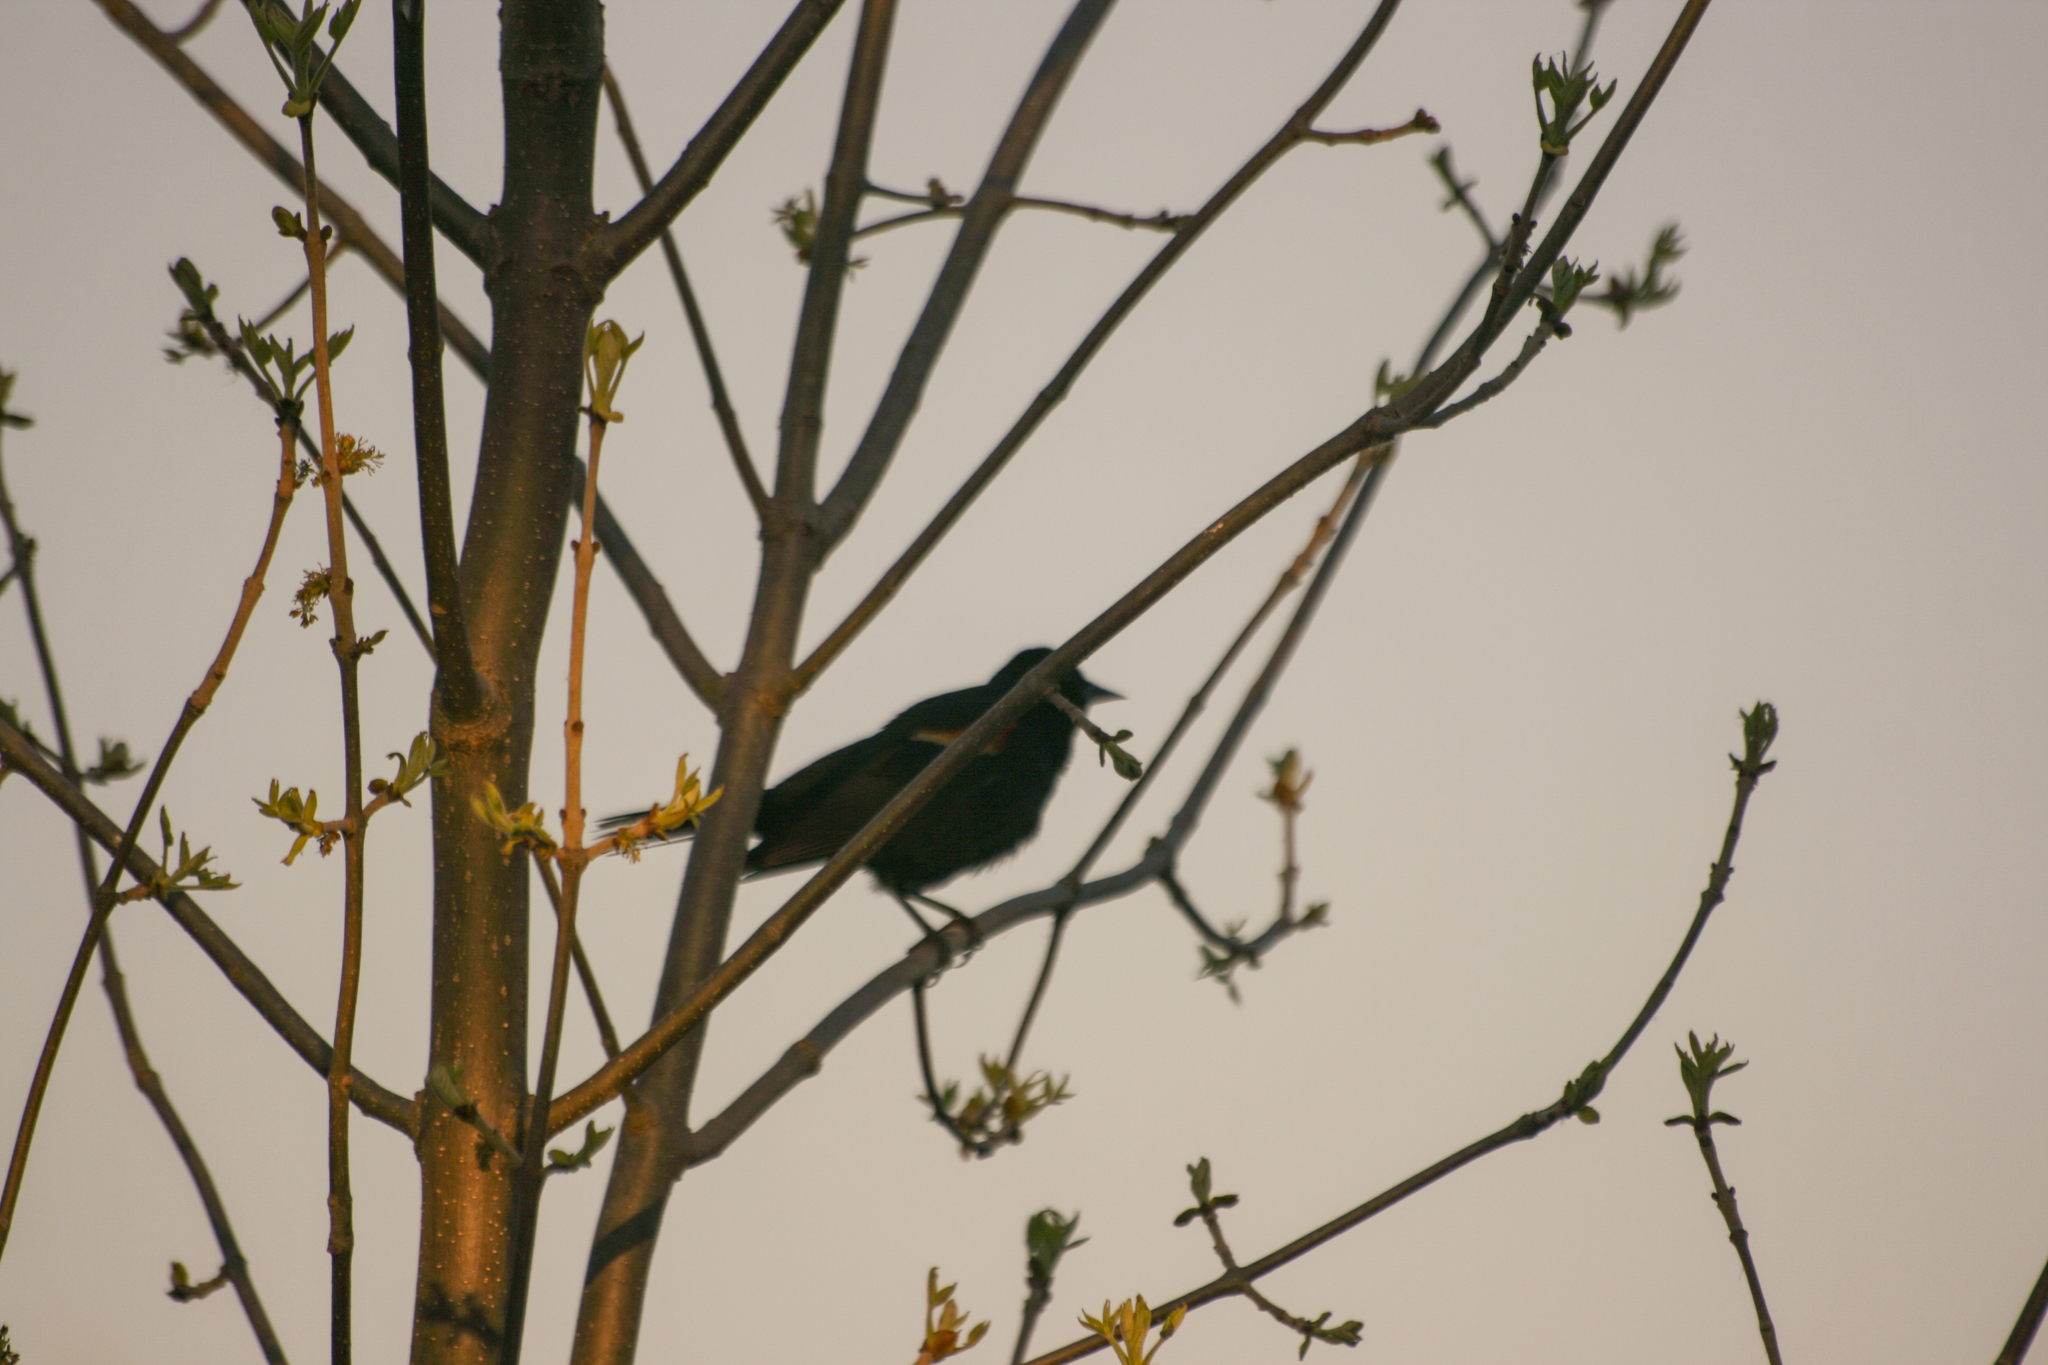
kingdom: Animalia
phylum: Chordata
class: Aves
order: Passeriformes
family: Icteridae
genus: Agelaius
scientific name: Agelaius phoeniceus
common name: Red-winged blackbird
